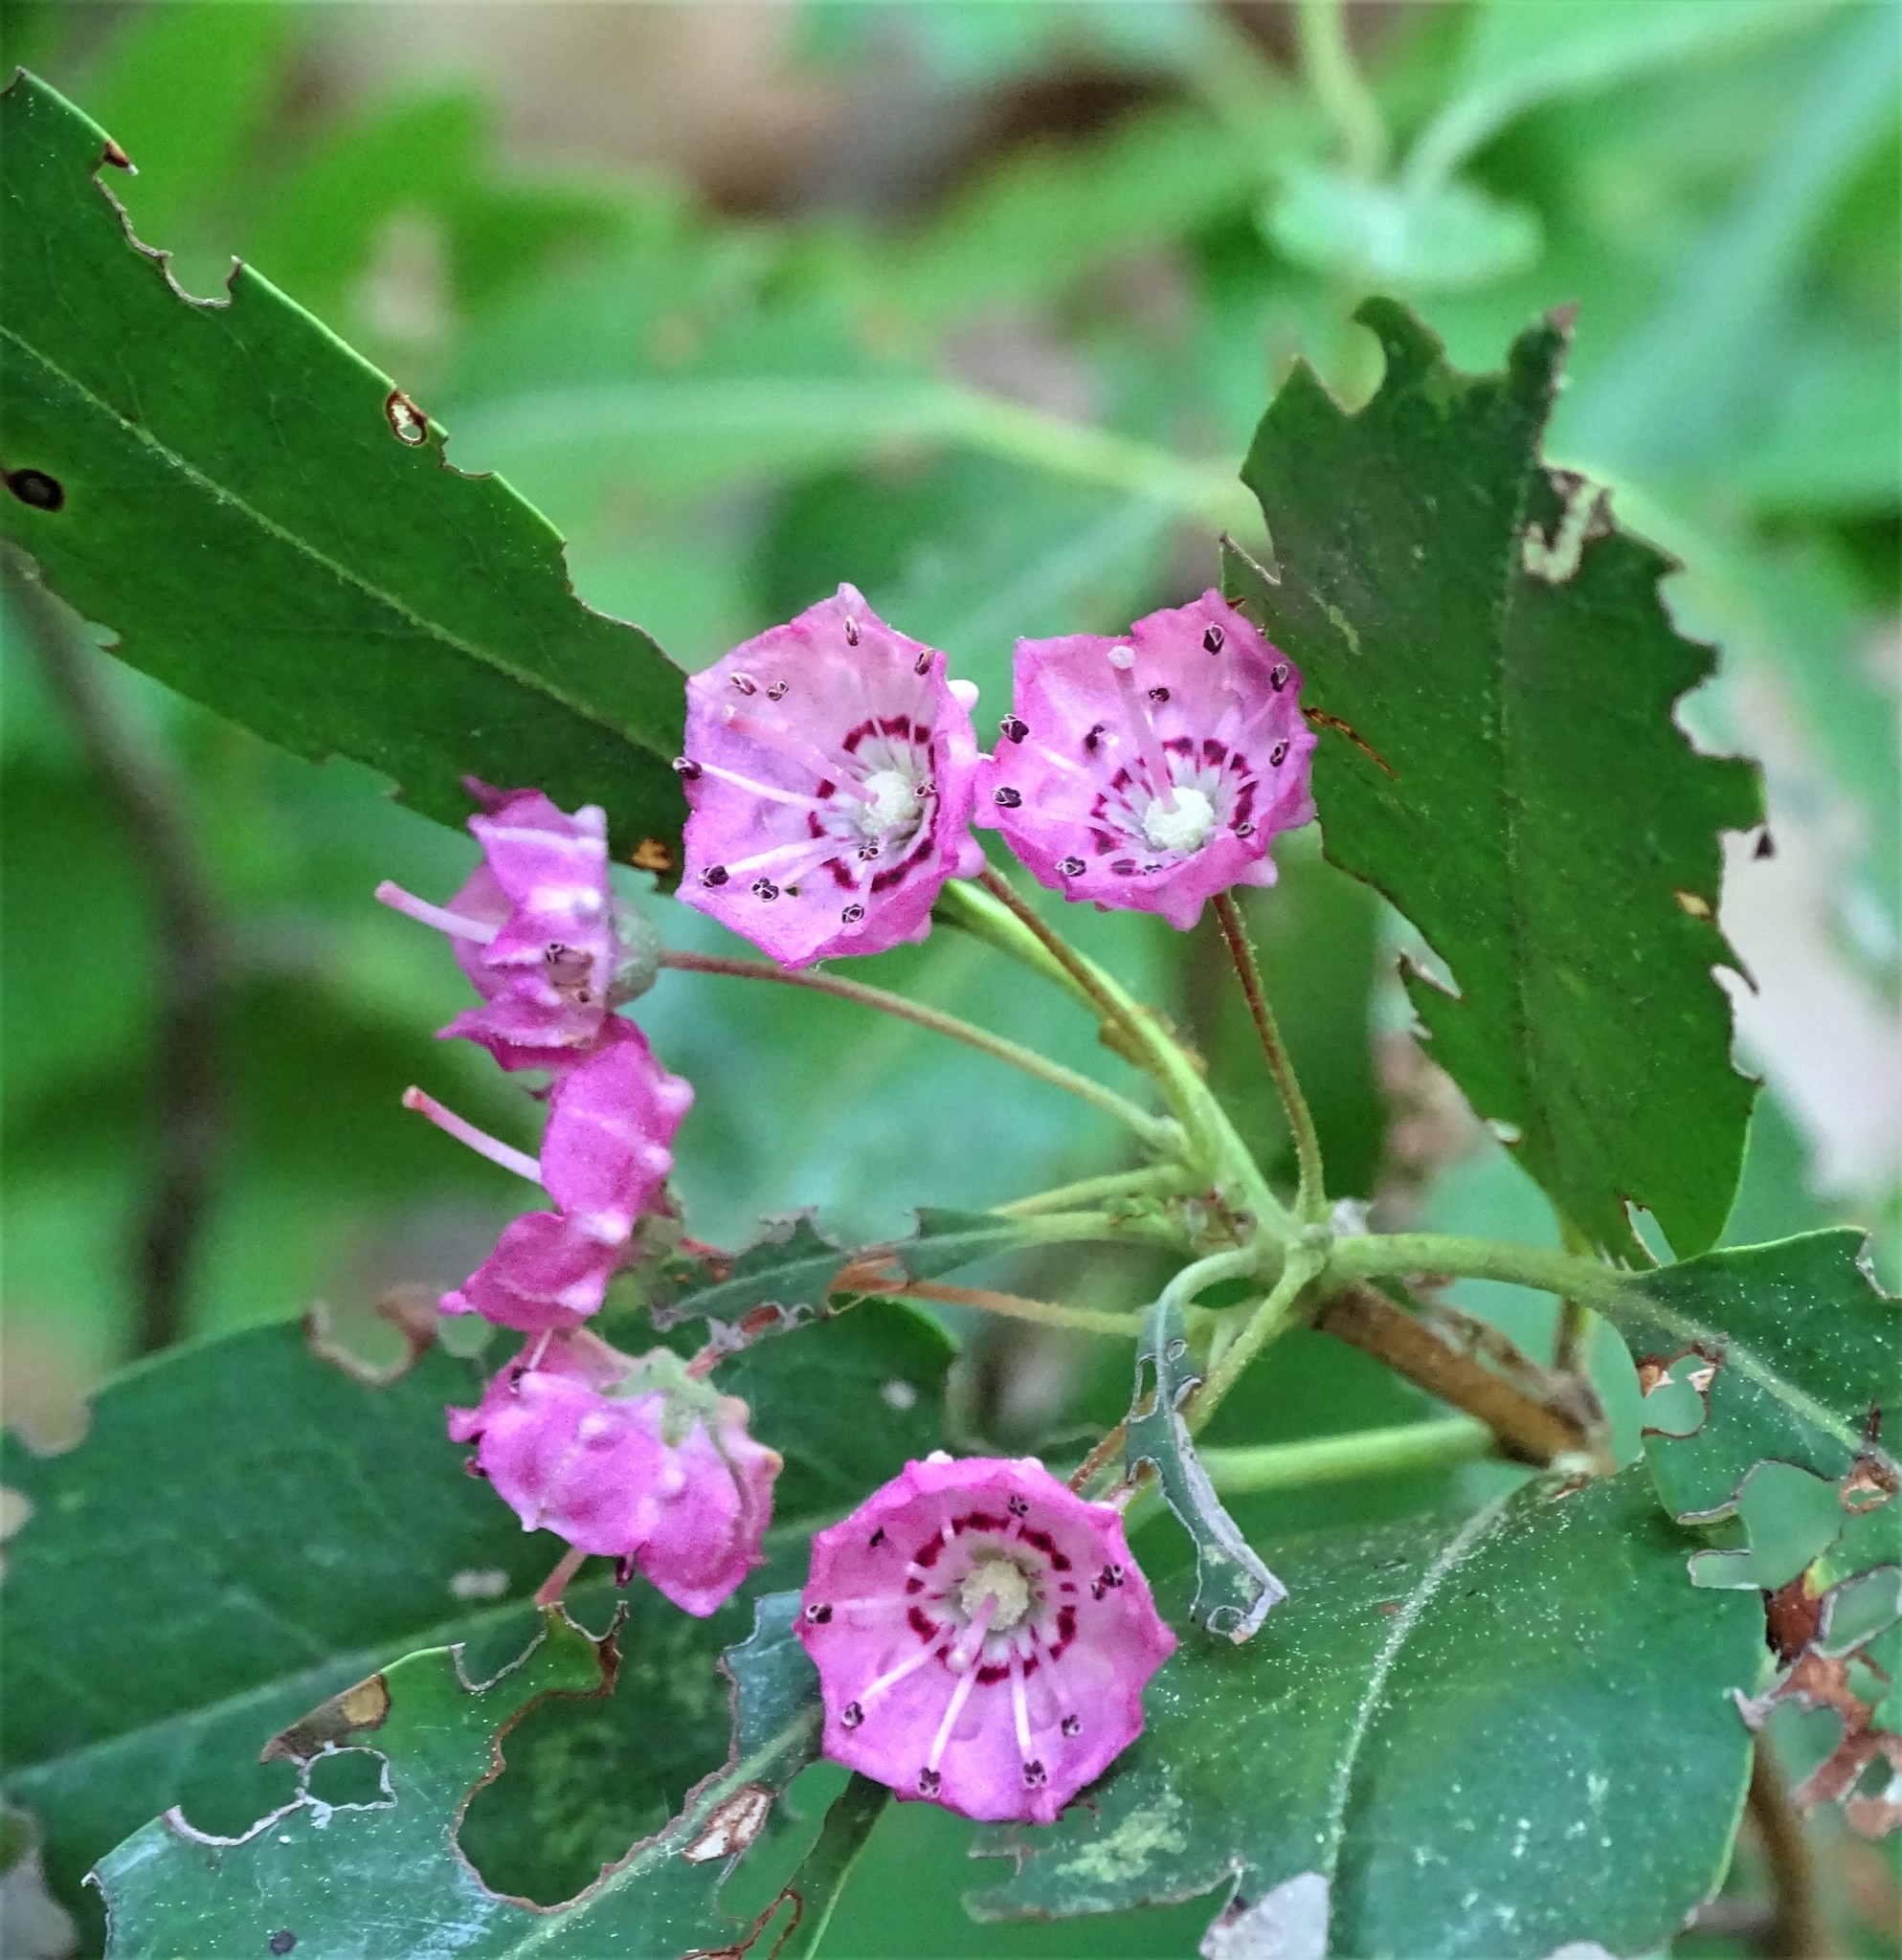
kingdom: Plantae
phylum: Tracheophyta
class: Magnoliopsida
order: Ericales
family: Ericaceae
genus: Kalmia
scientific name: Kalmia angustifolia
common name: Sheep-laurel
